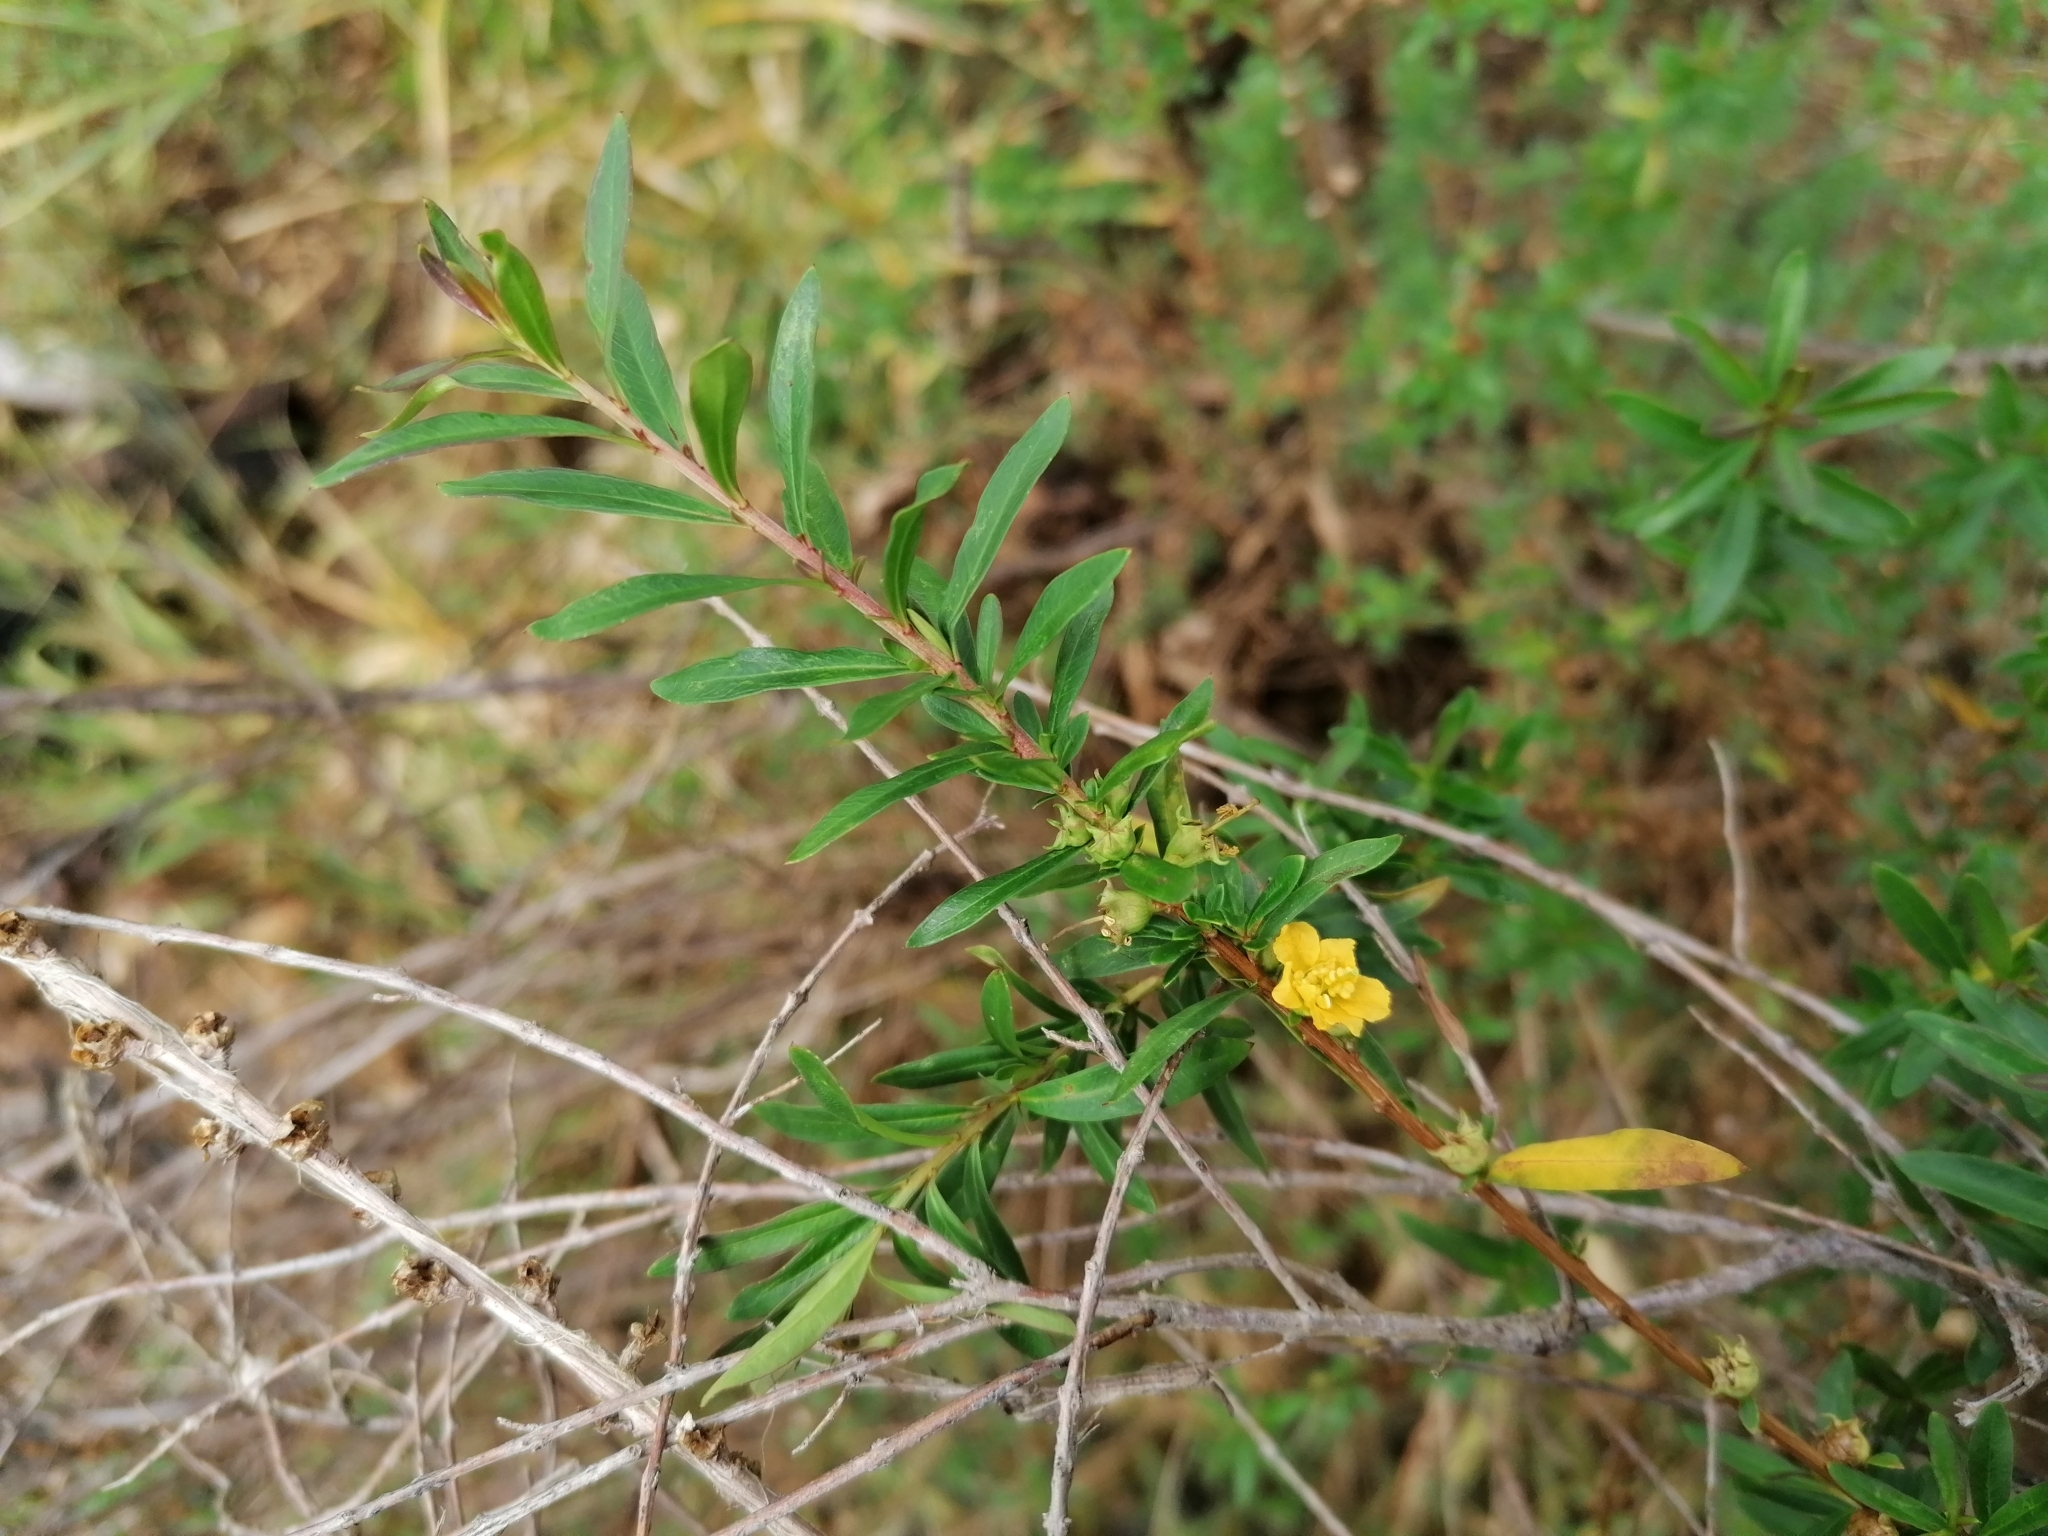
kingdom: Plantae
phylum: Tracheophyta
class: Magnoliopsida
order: Myrtales
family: Lythraceae
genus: Heimia
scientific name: Heimia salicifolia
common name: Willow-leaf heimia
